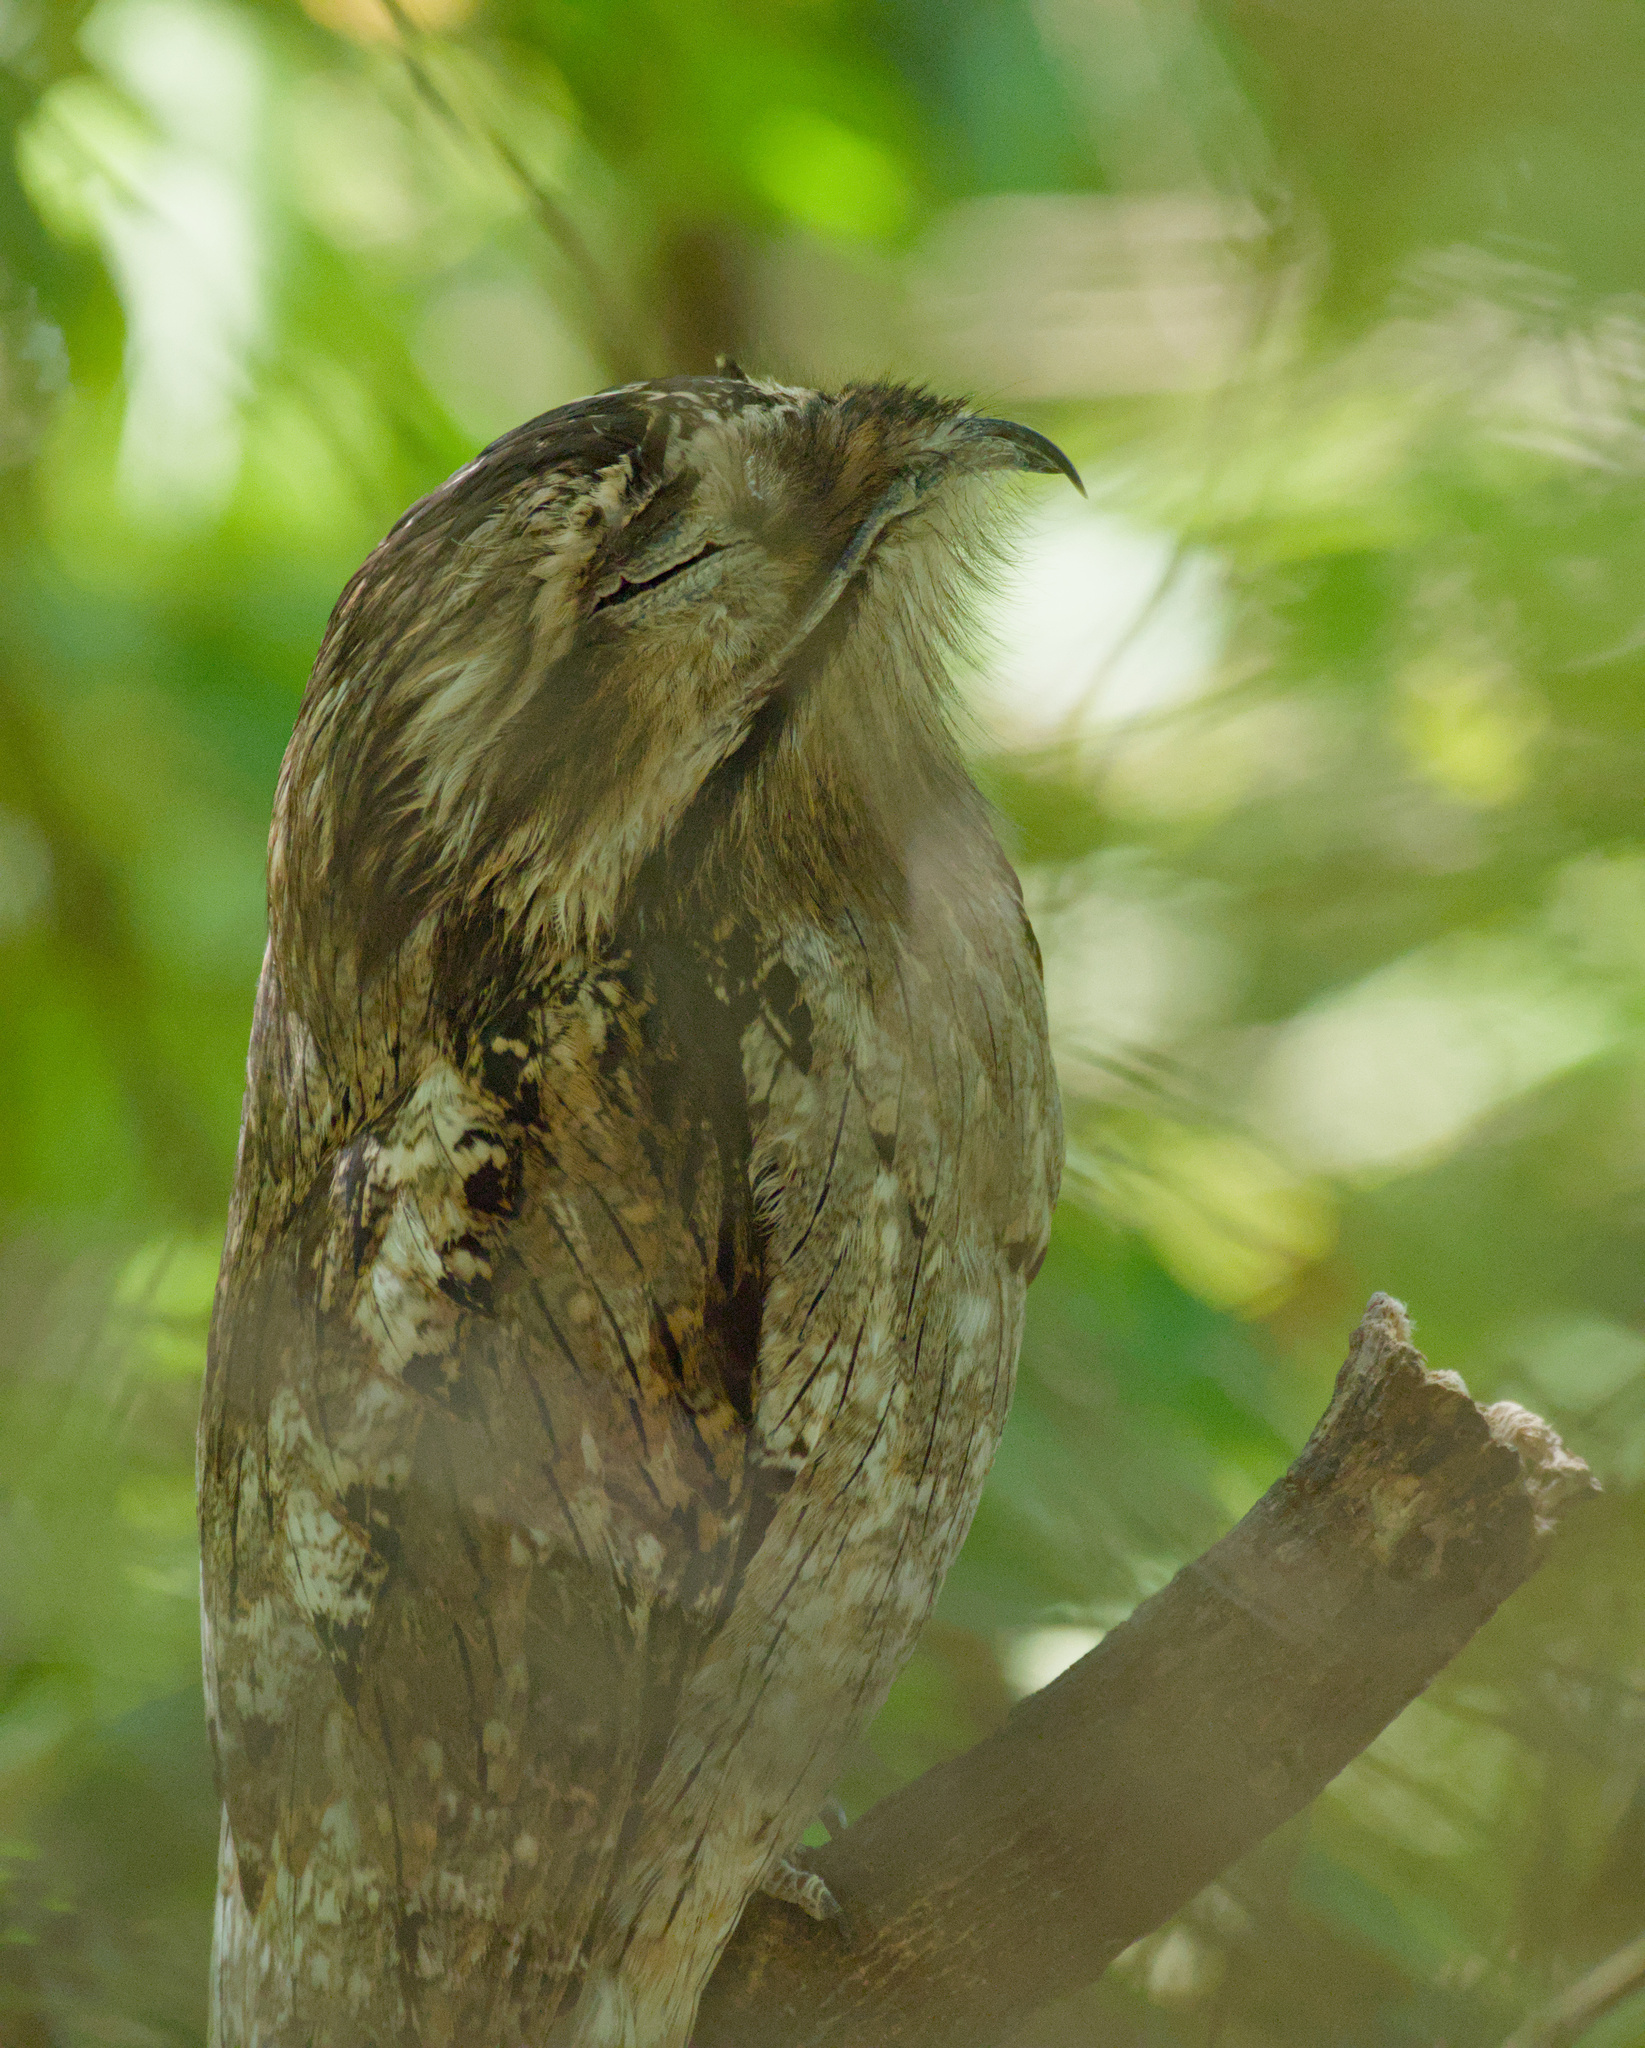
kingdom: Animalia
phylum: Chordata
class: Aves
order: Nyctibiiformes
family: Nyctibiidae
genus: Nyctibius
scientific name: Nyctibius jamaicensis
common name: Northern potoo
